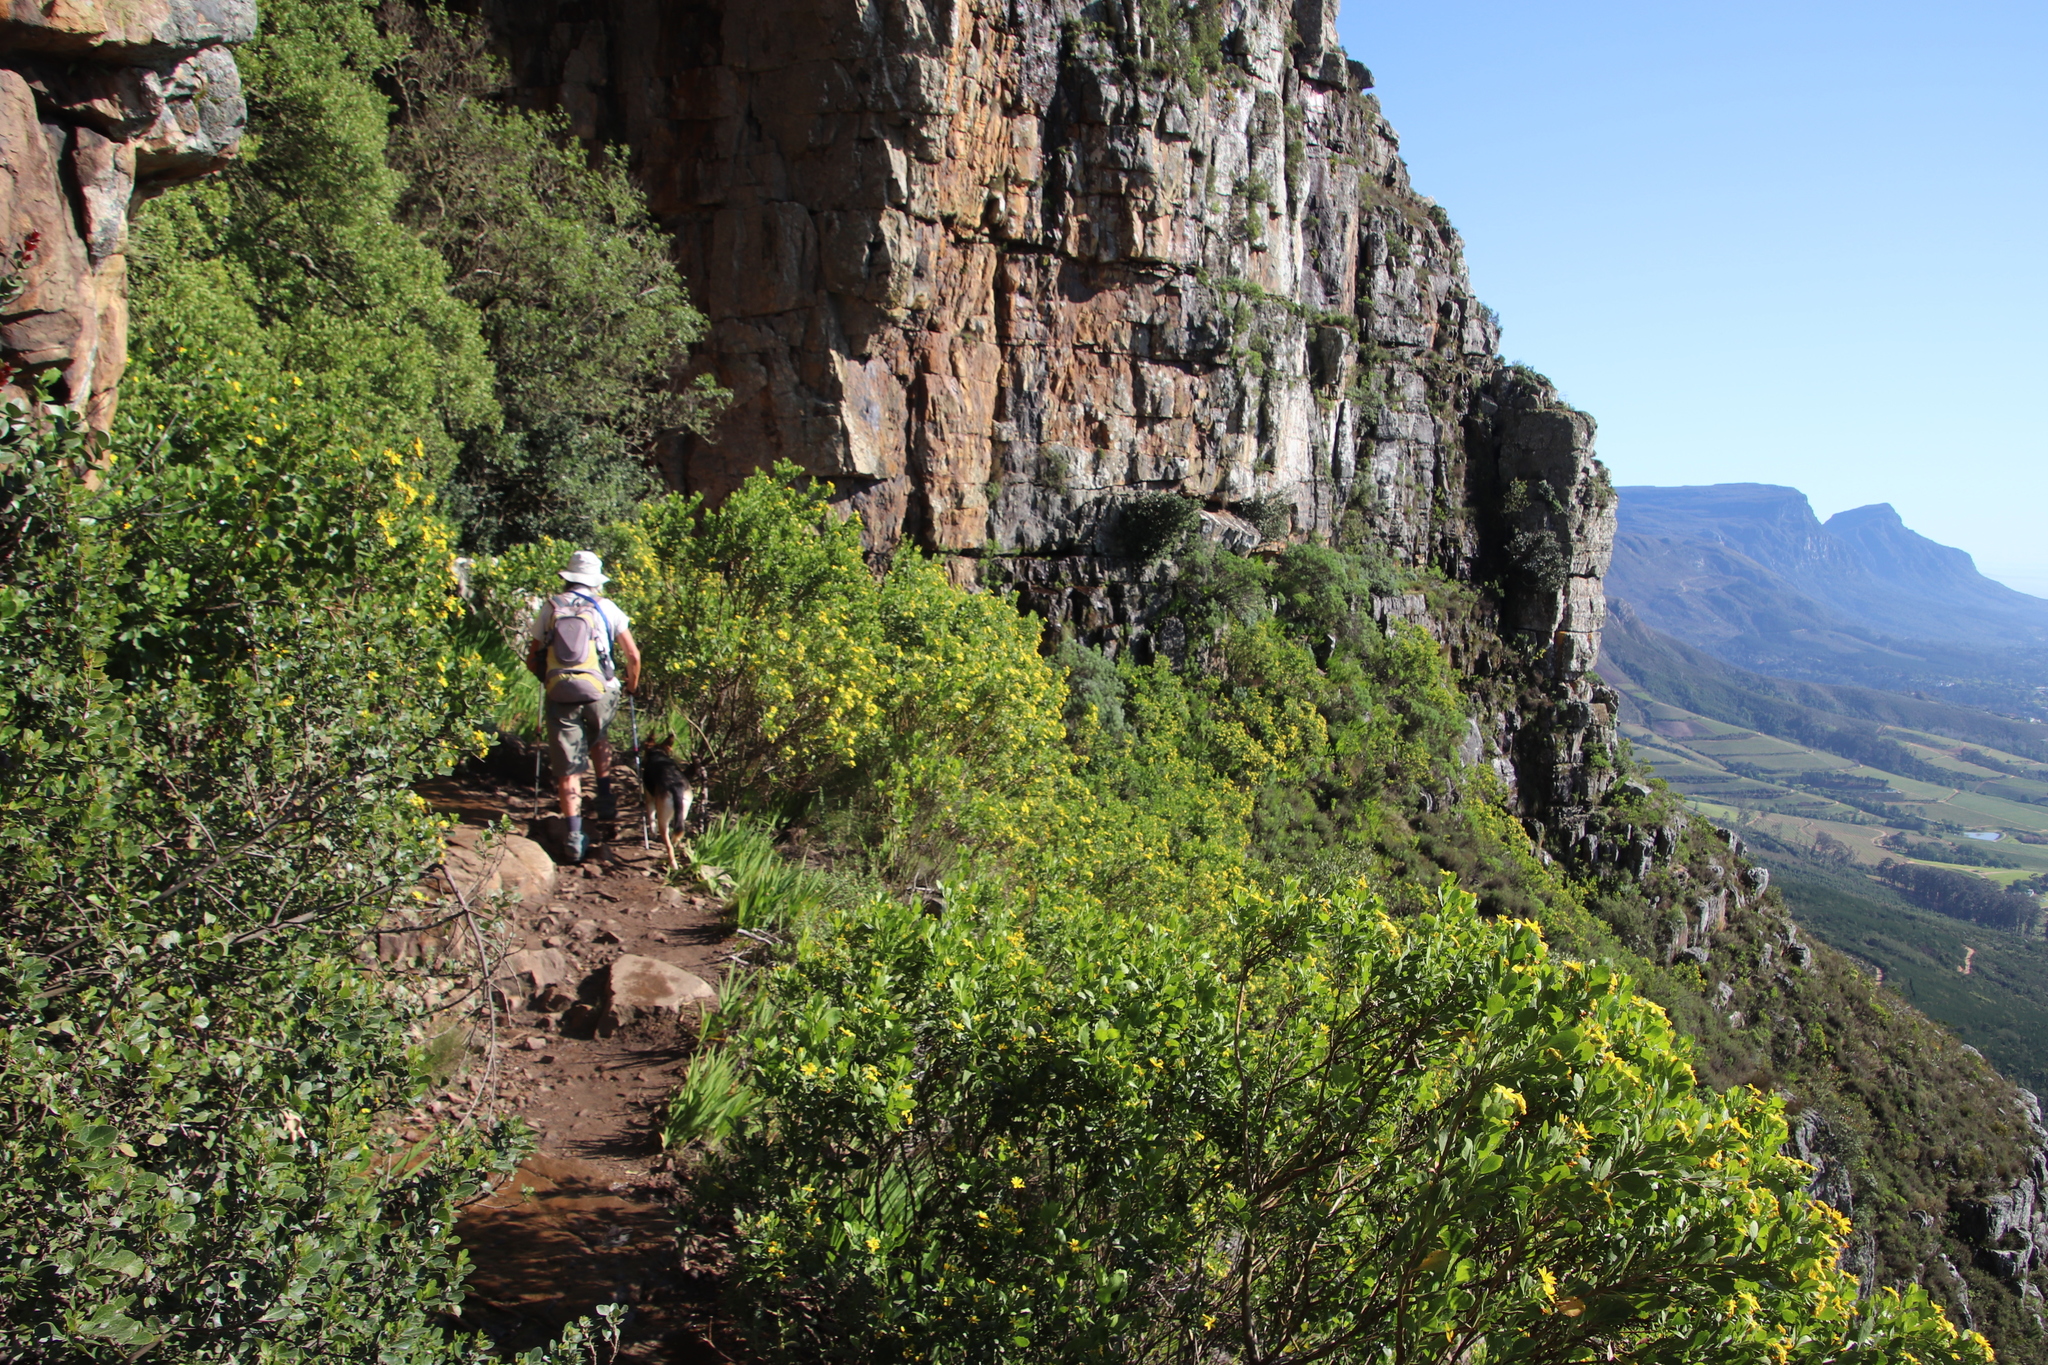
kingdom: Plantae
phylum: Tracheophyta
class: Magnoliopsida
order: Asterales
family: Asteraceae
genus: Osteospermum
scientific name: Osteospermum moniliferum
